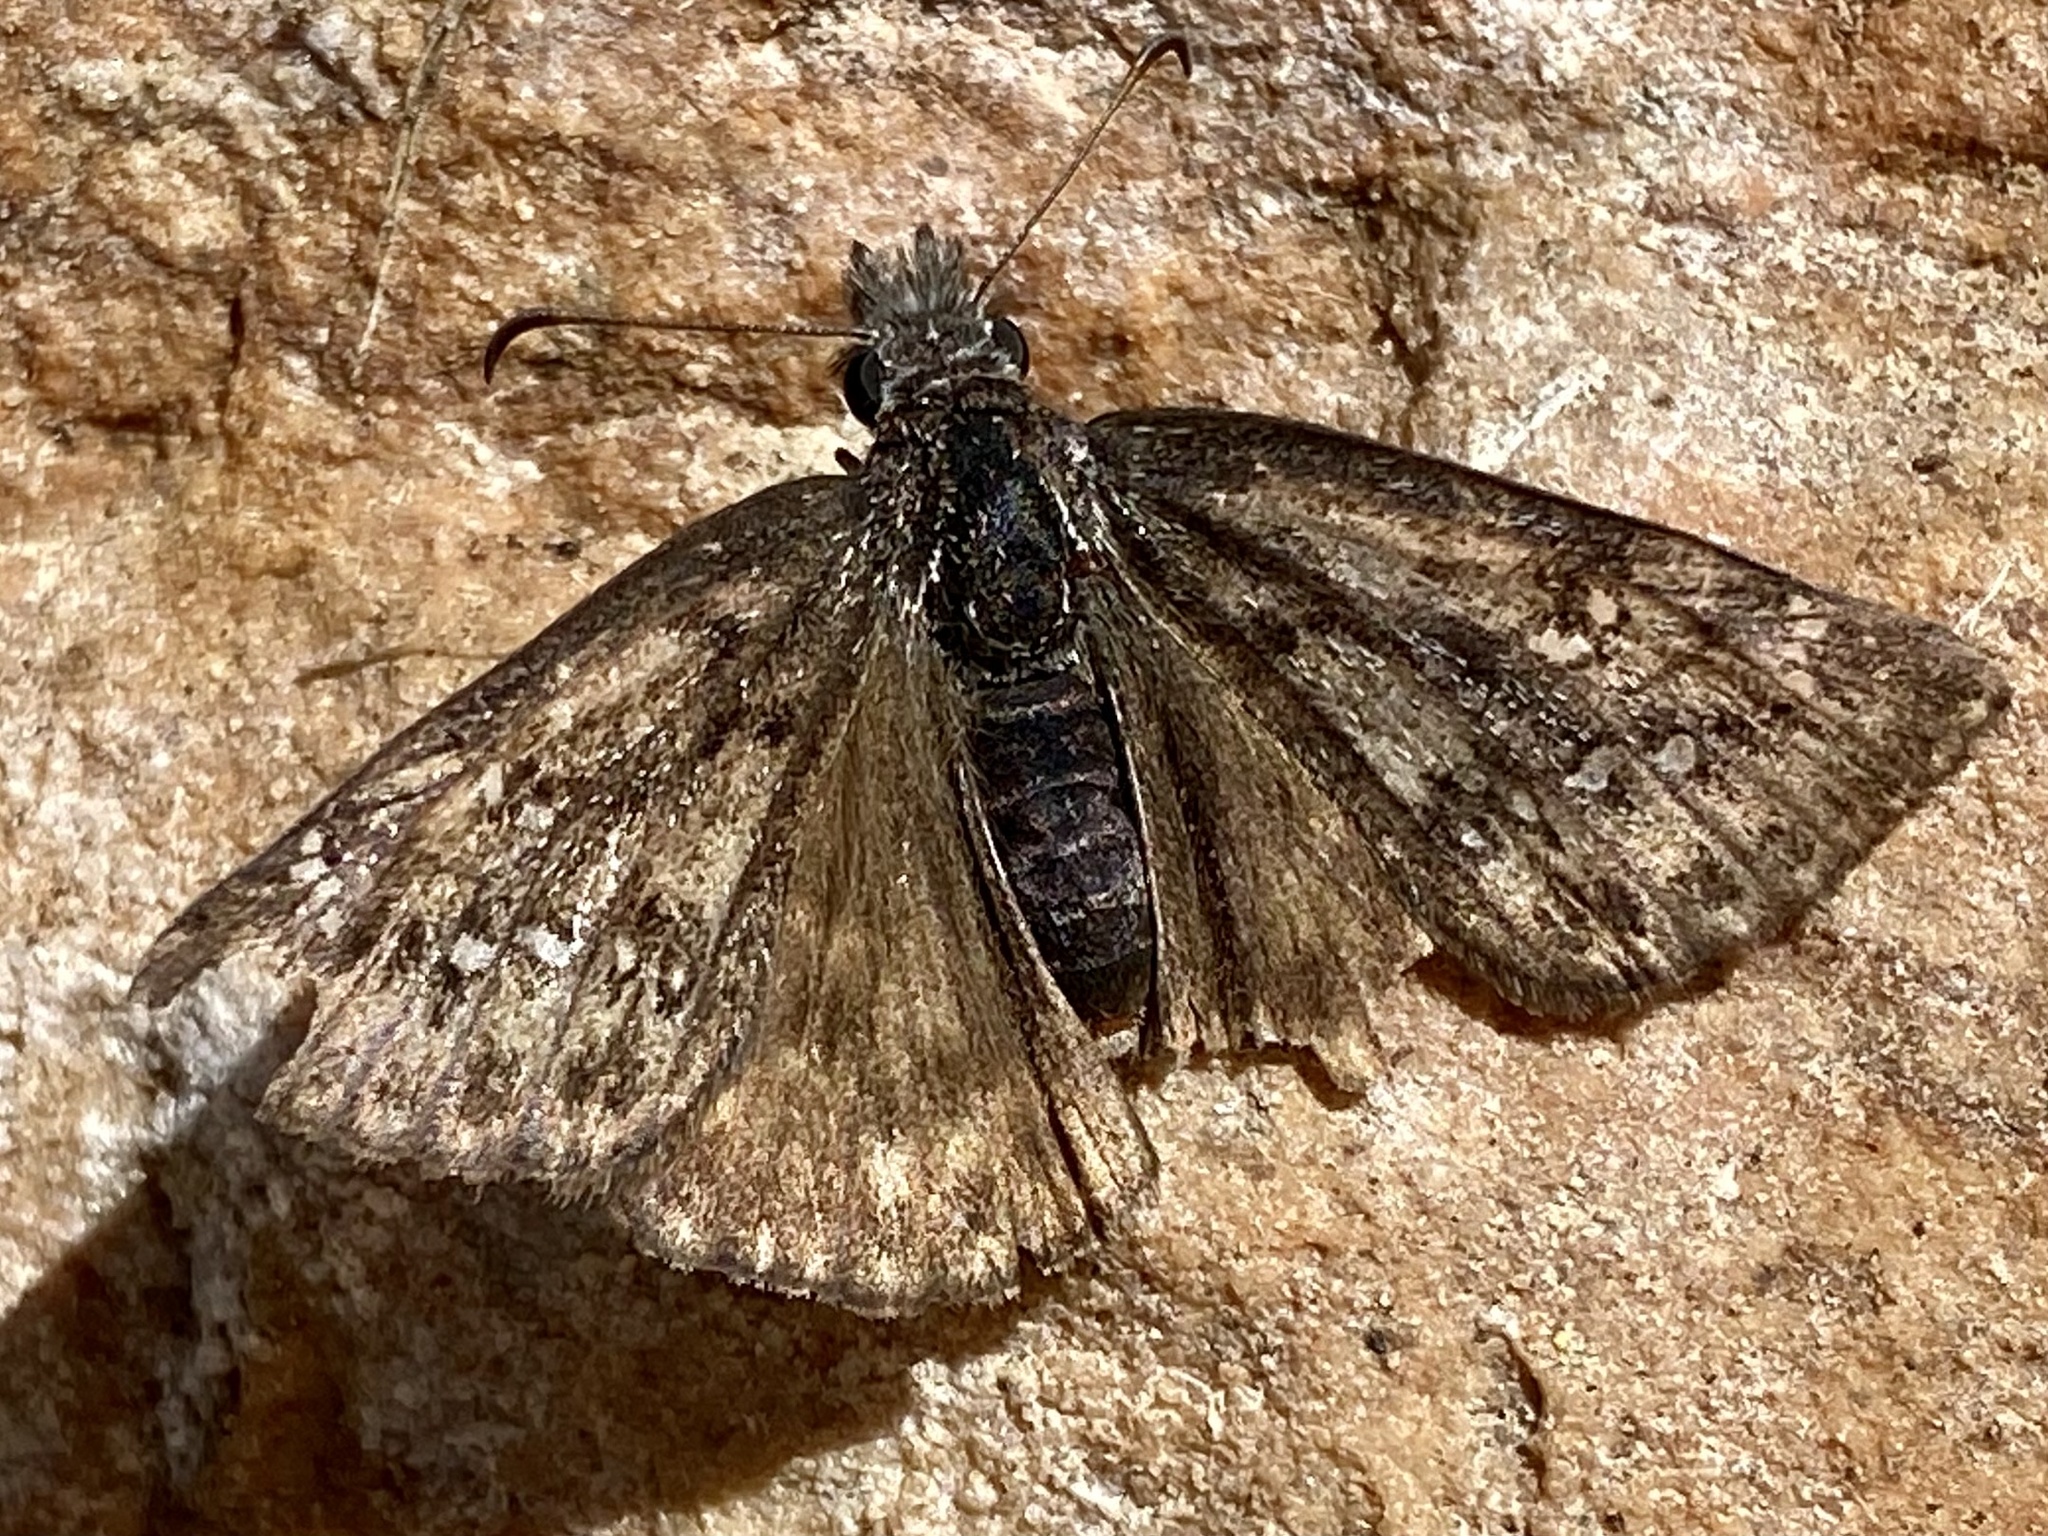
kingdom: Animalia
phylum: Arthropoda
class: Insecta
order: Lepidoptera
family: Hesperiidae
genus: Erynnis
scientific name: Erynnis telemachus
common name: Rocky mountain duskywing
